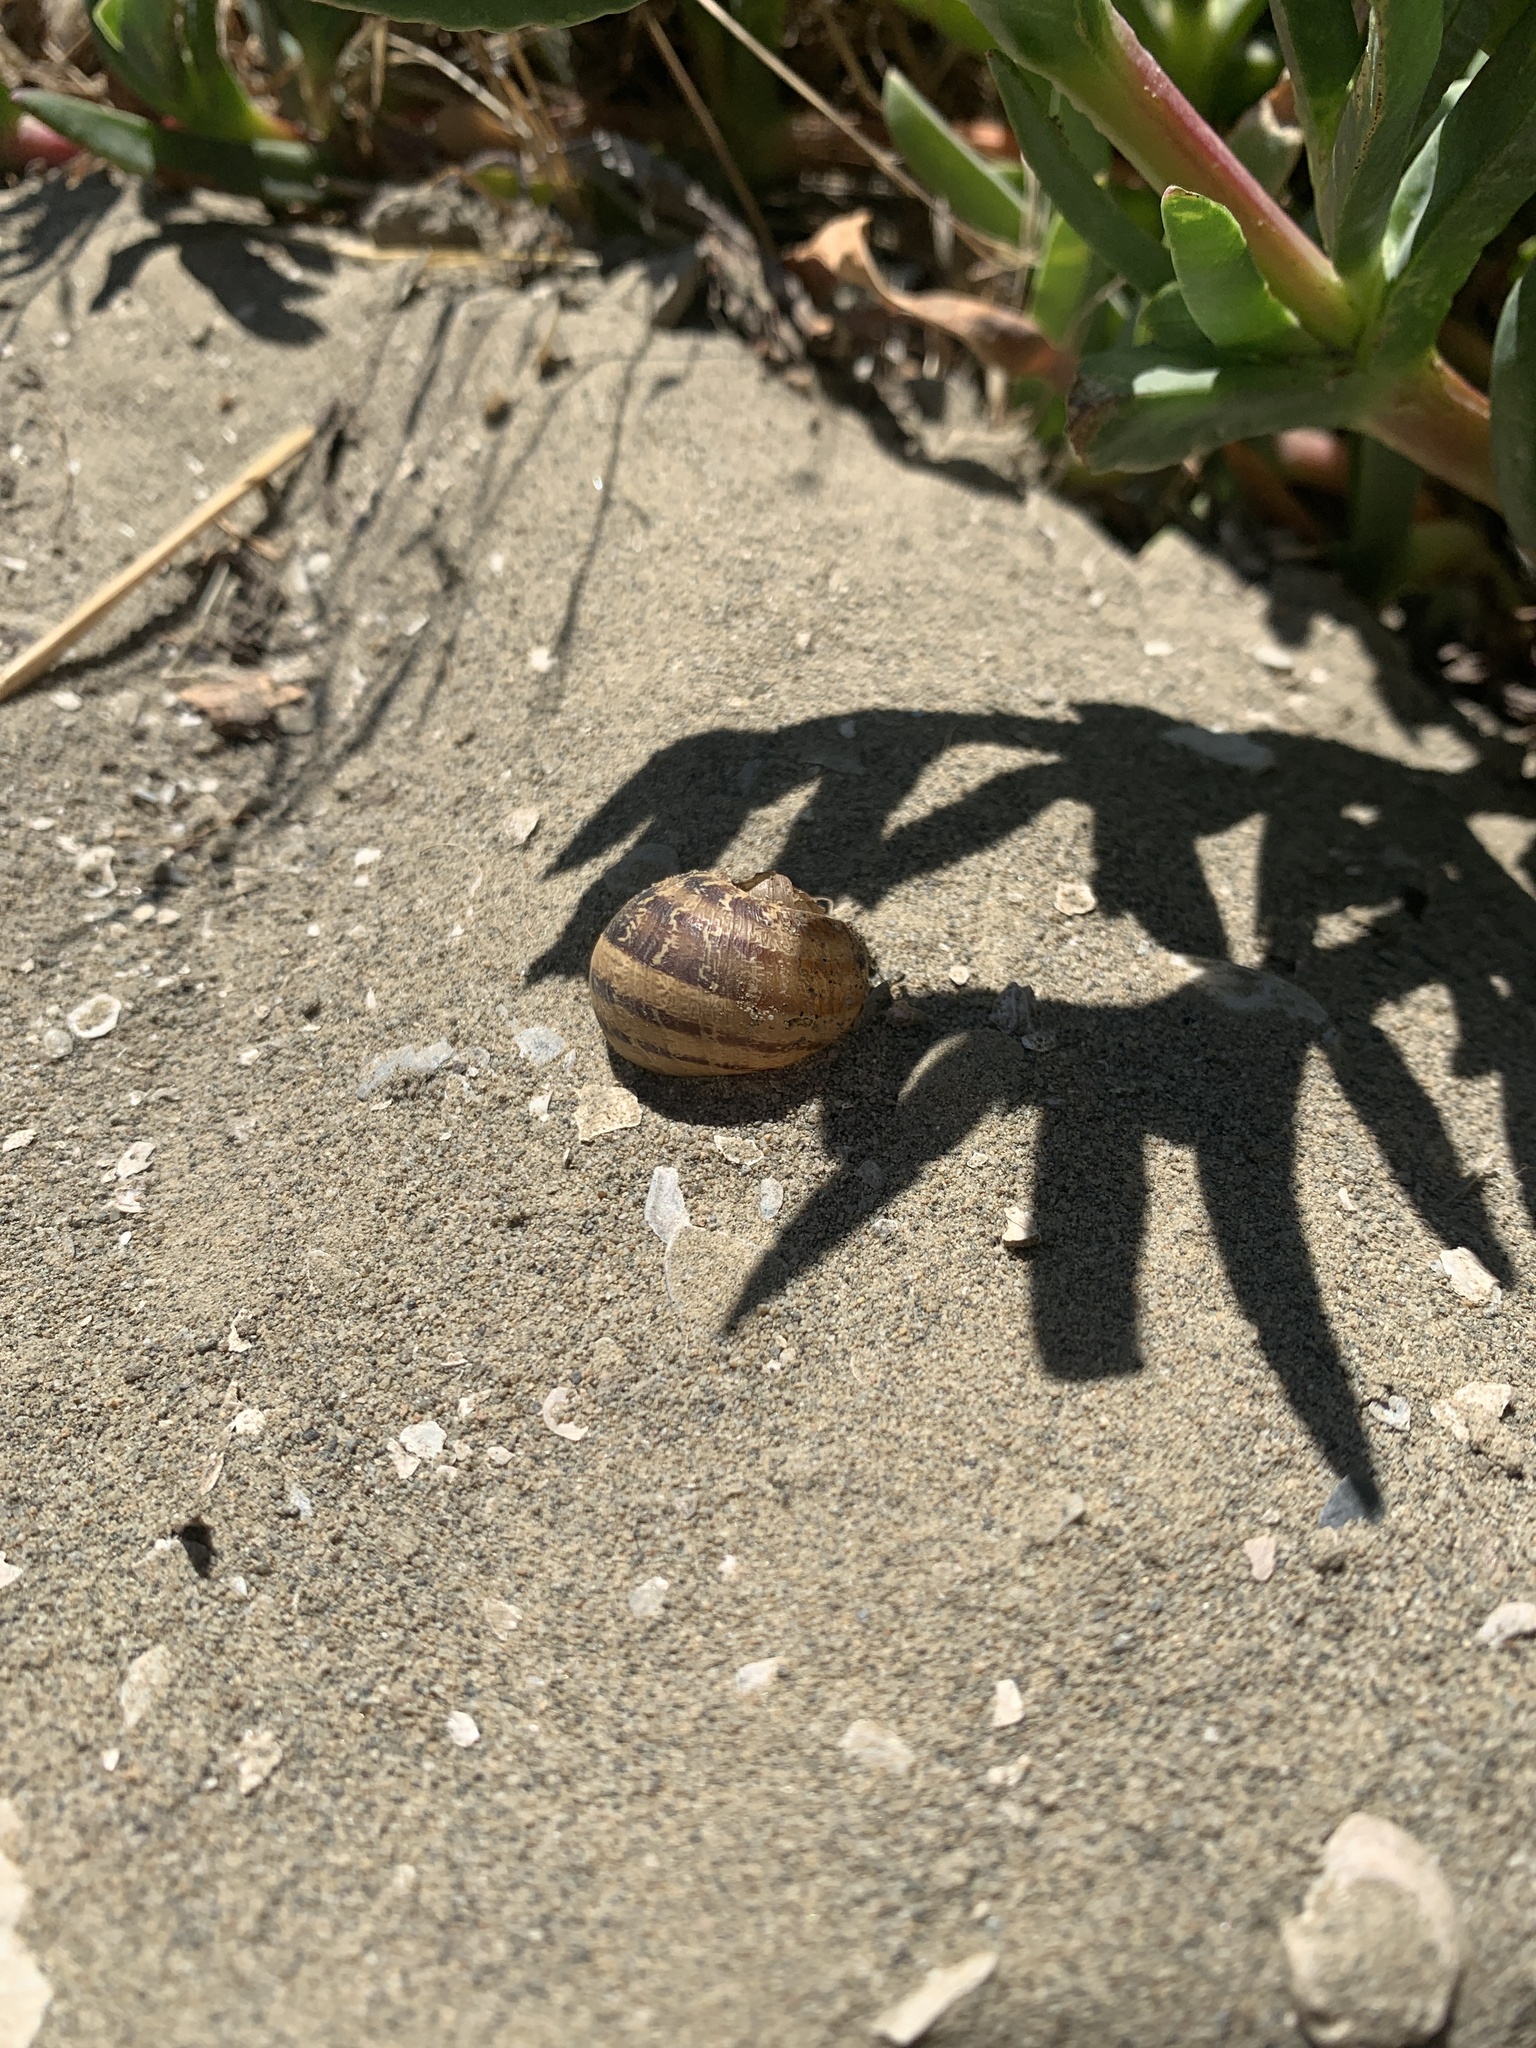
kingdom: Animalia
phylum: Mollusca
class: Gastropoda
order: Stylommatophora
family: Helicidae
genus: Cornu
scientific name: Cornu aspersum
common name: Brown garden snail
